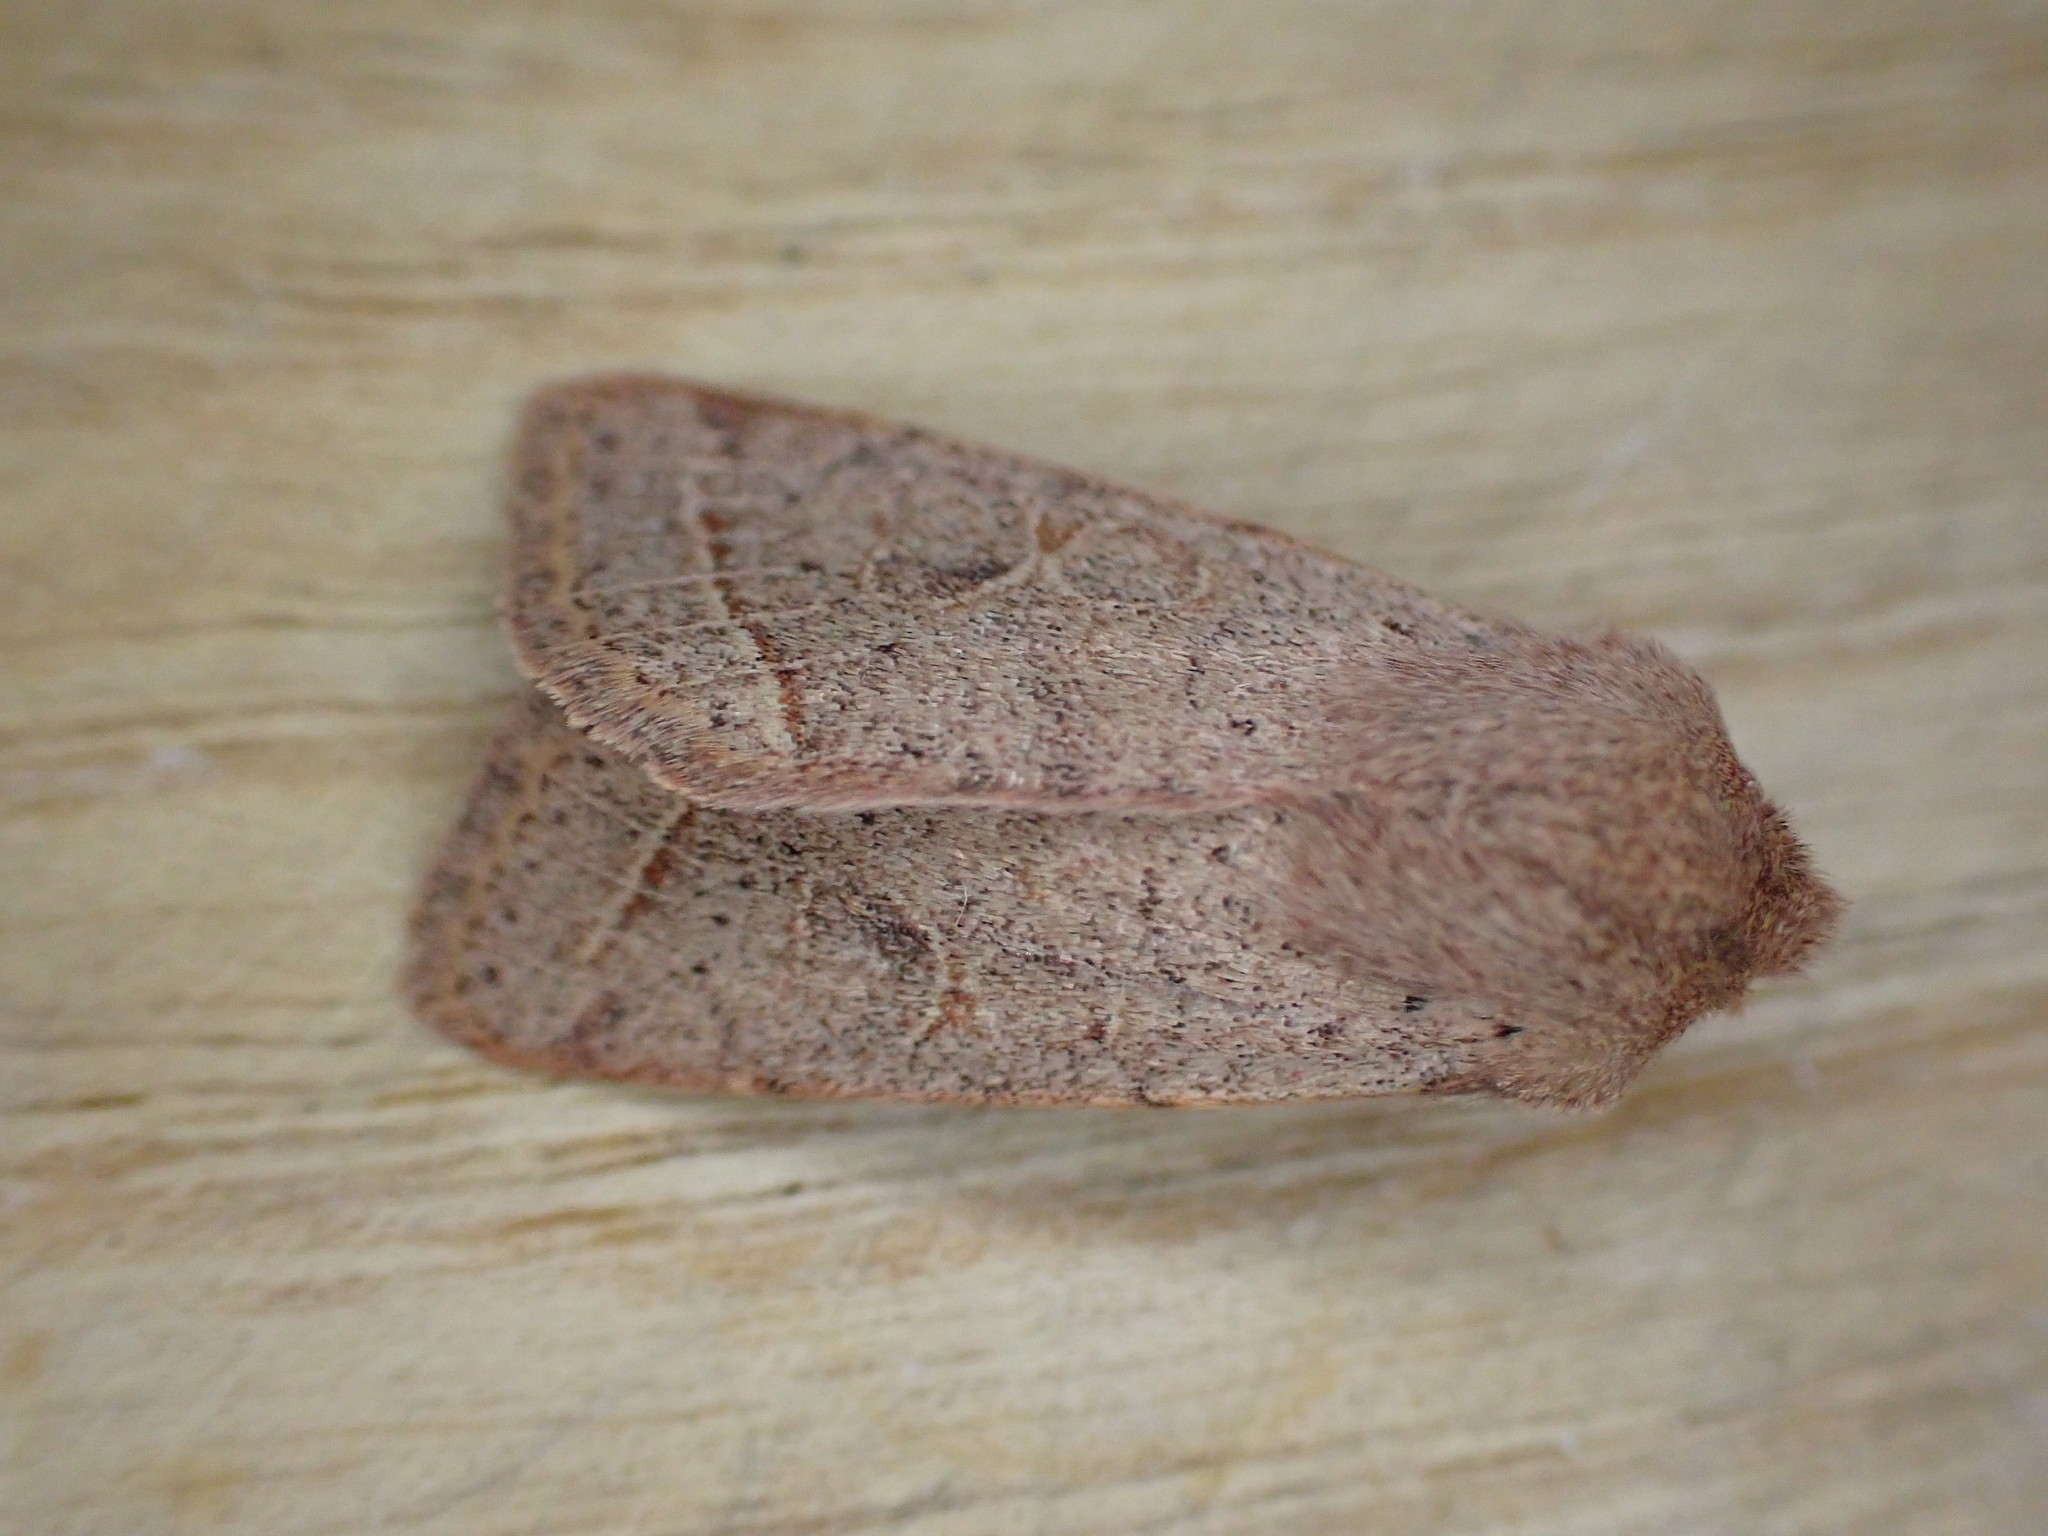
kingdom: Animalia
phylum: Arthropoda
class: Insecta
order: Lepidoptera
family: Noctuidae
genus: Orthosia
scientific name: Orthosia cerasi
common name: Common quaker
